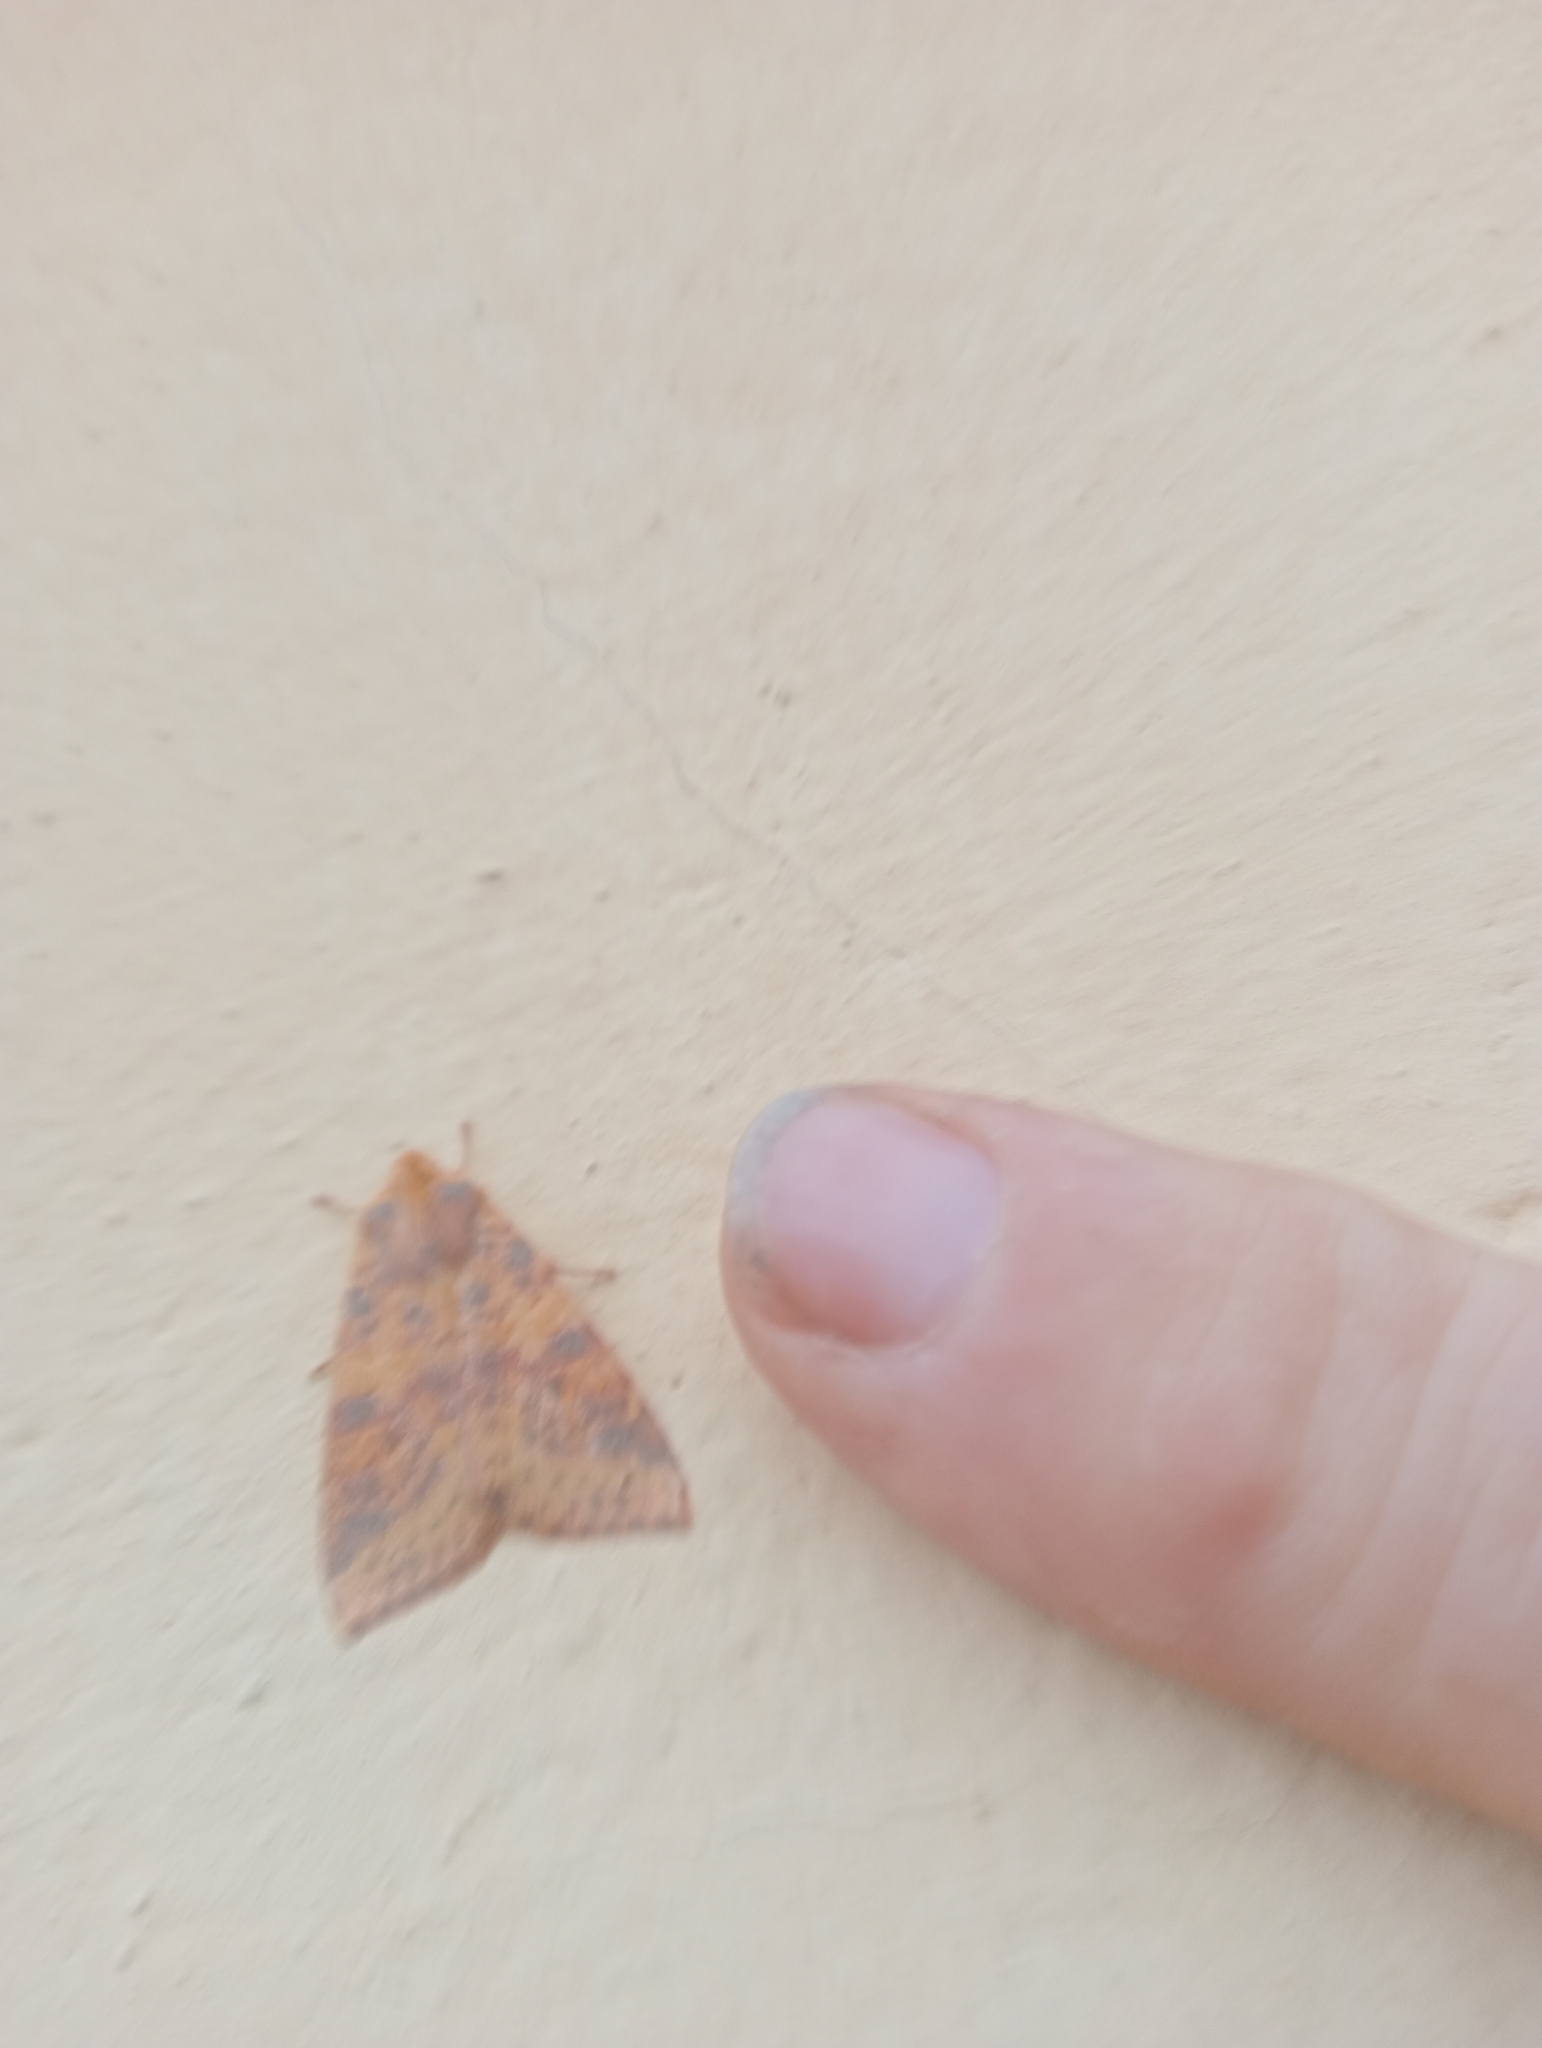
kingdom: Animalia
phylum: Arthropoda
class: Insecta
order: Lepidoptera
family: Noctuidae
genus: Xanthia
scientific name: Xanthia togata
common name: Pink-barred sallow
